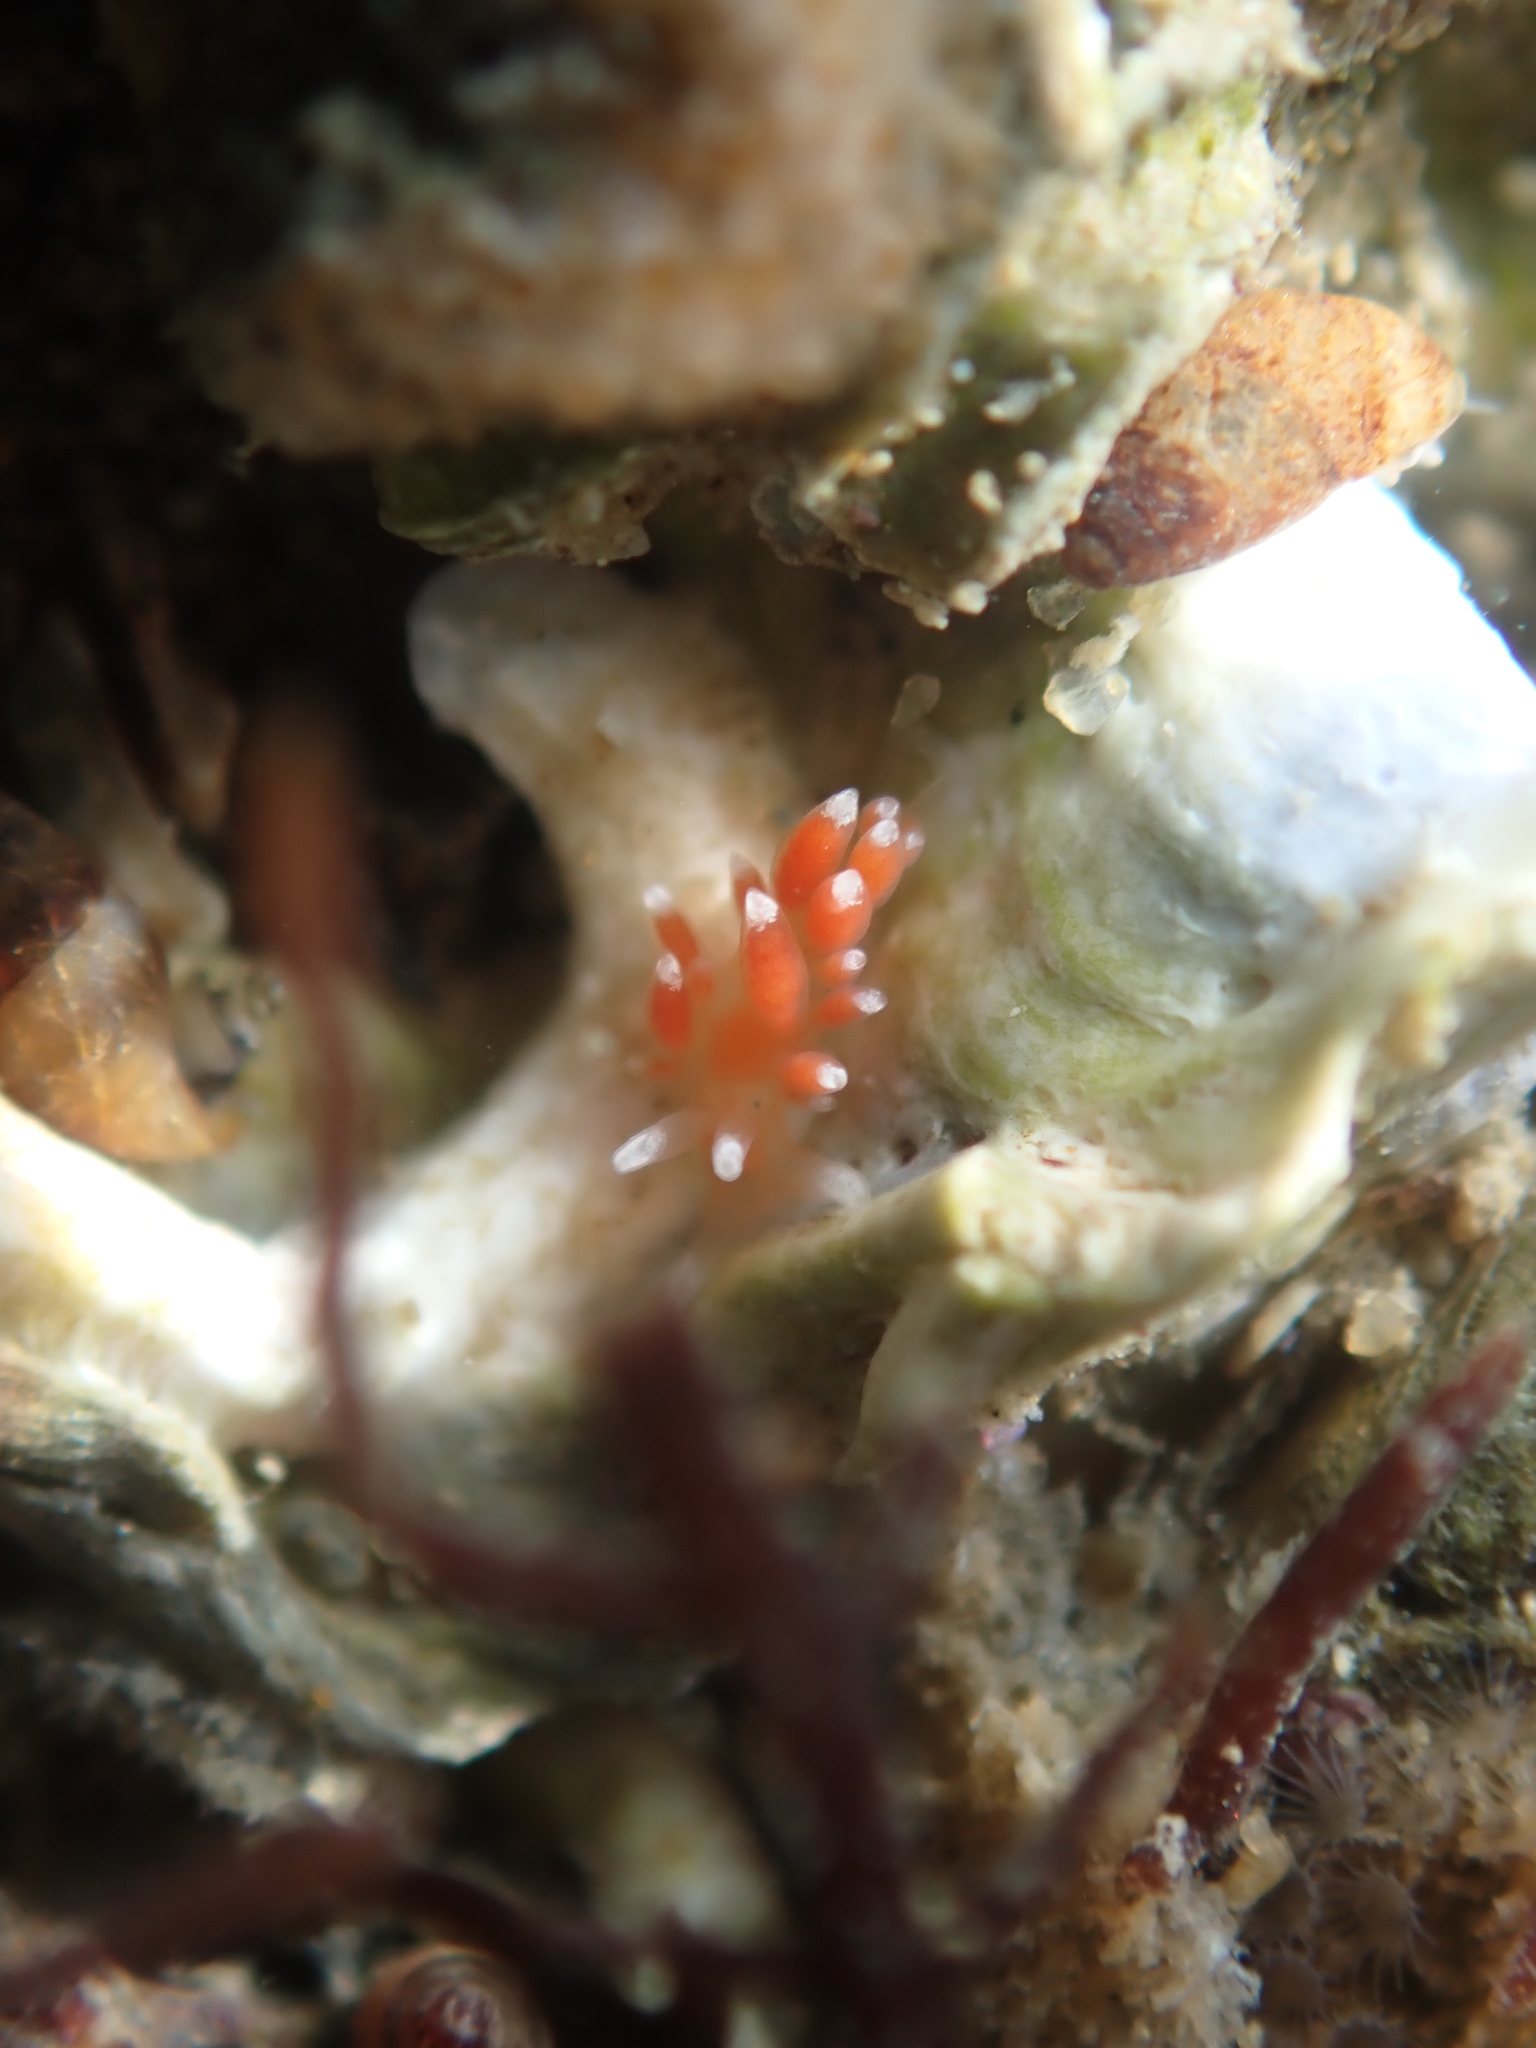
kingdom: Animalia
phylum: Mollusca
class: Gastropoda
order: Nudibranchia
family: Facelinidae
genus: Phidiana
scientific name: Phidiana milleri
